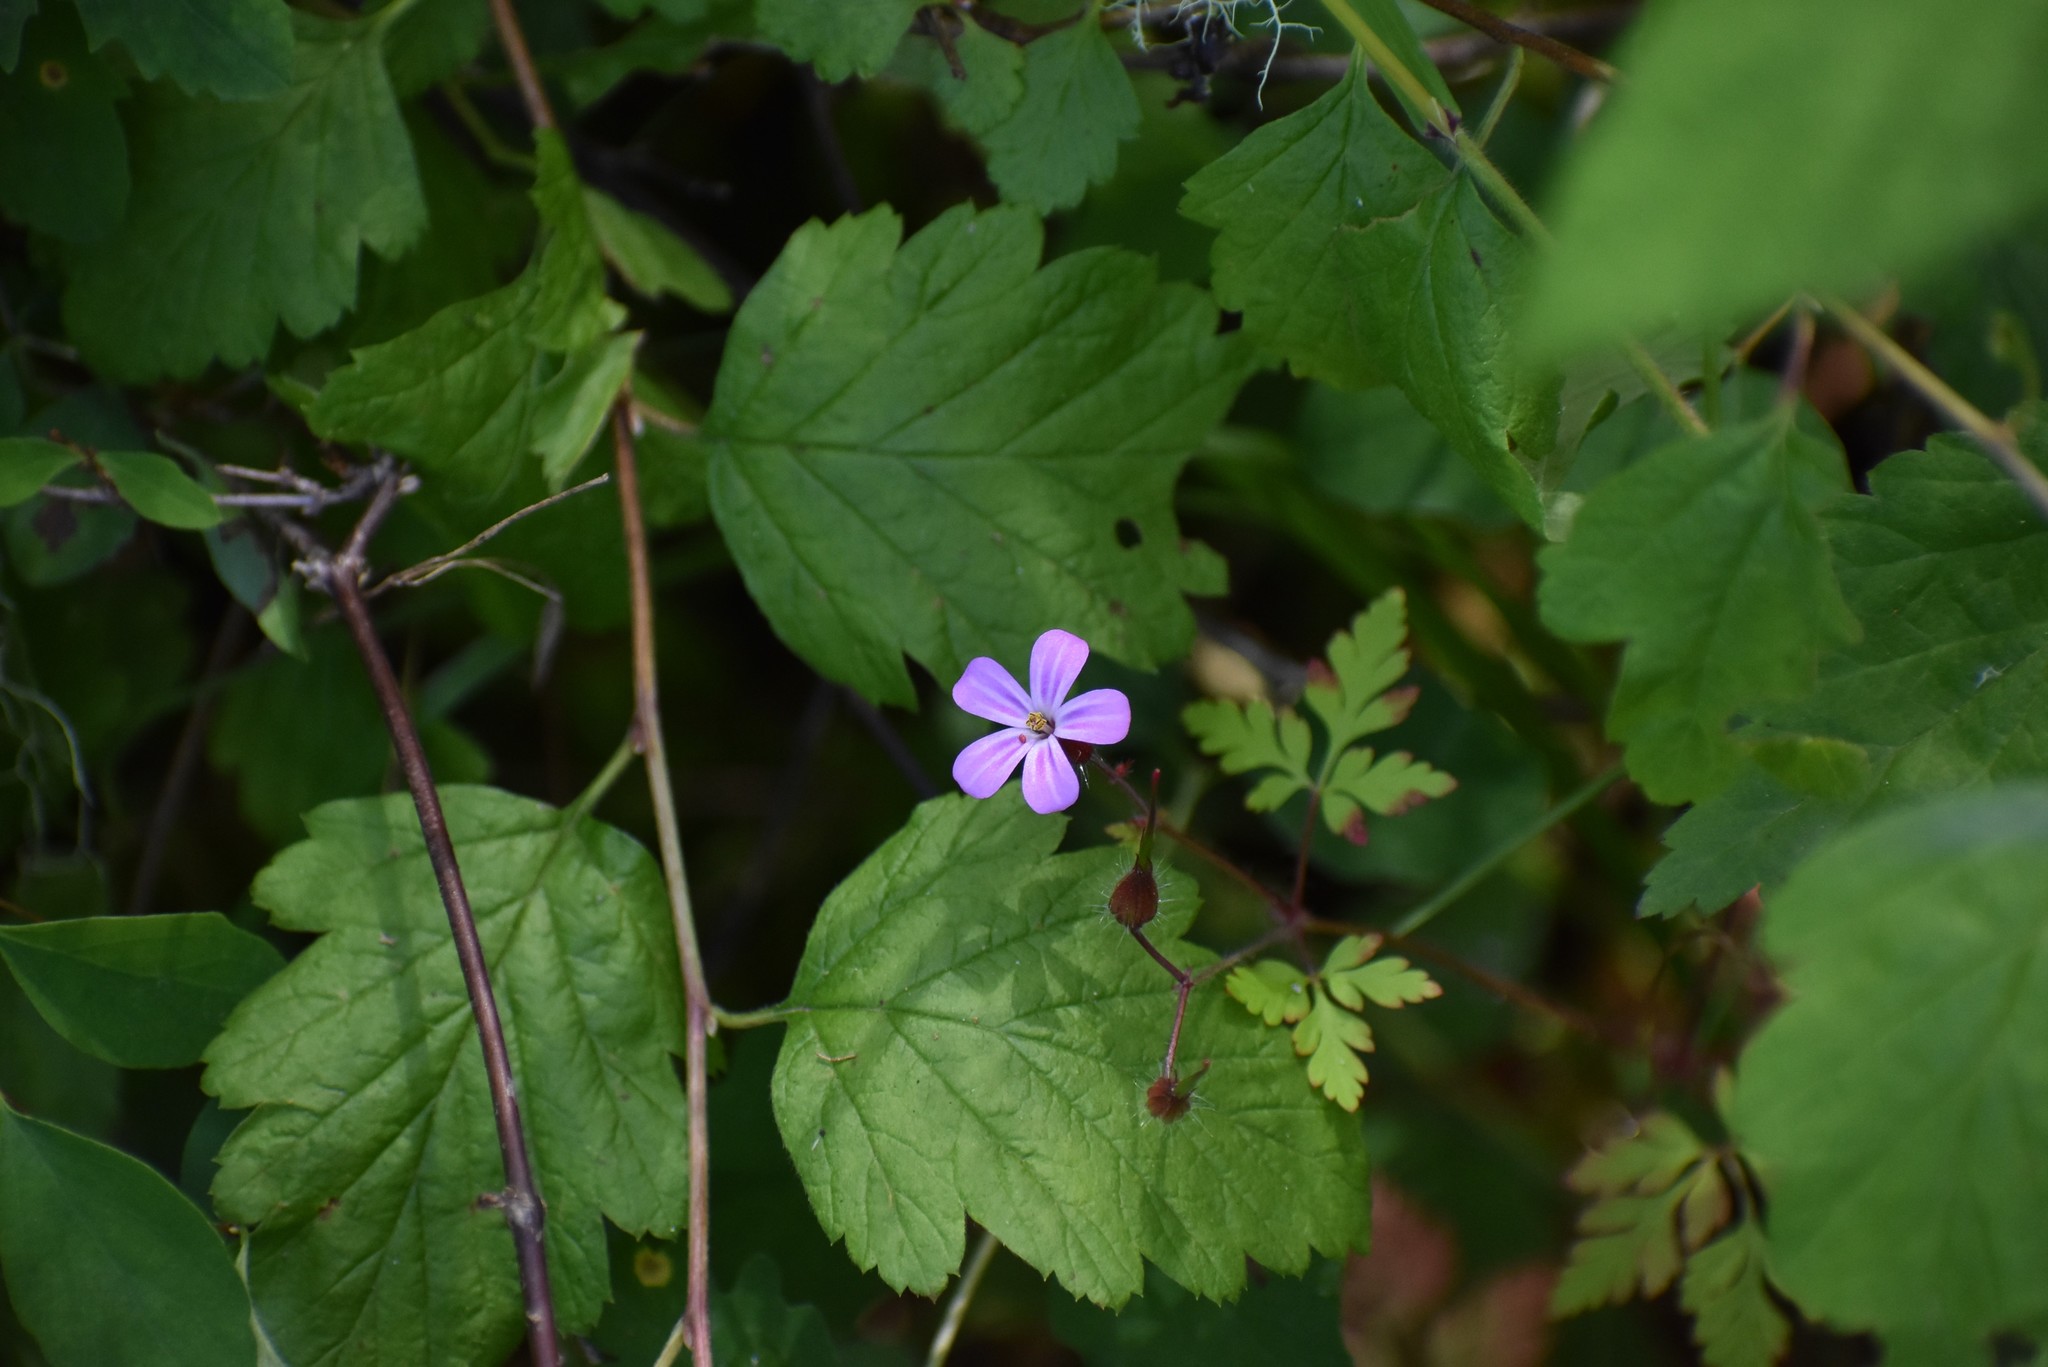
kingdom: Plantae
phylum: Tracheophyta
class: Magnoliopsida
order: Geraniales
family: Geraniaceae
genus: Geranium
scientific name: Geranium robertianum
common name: Herb-robert
